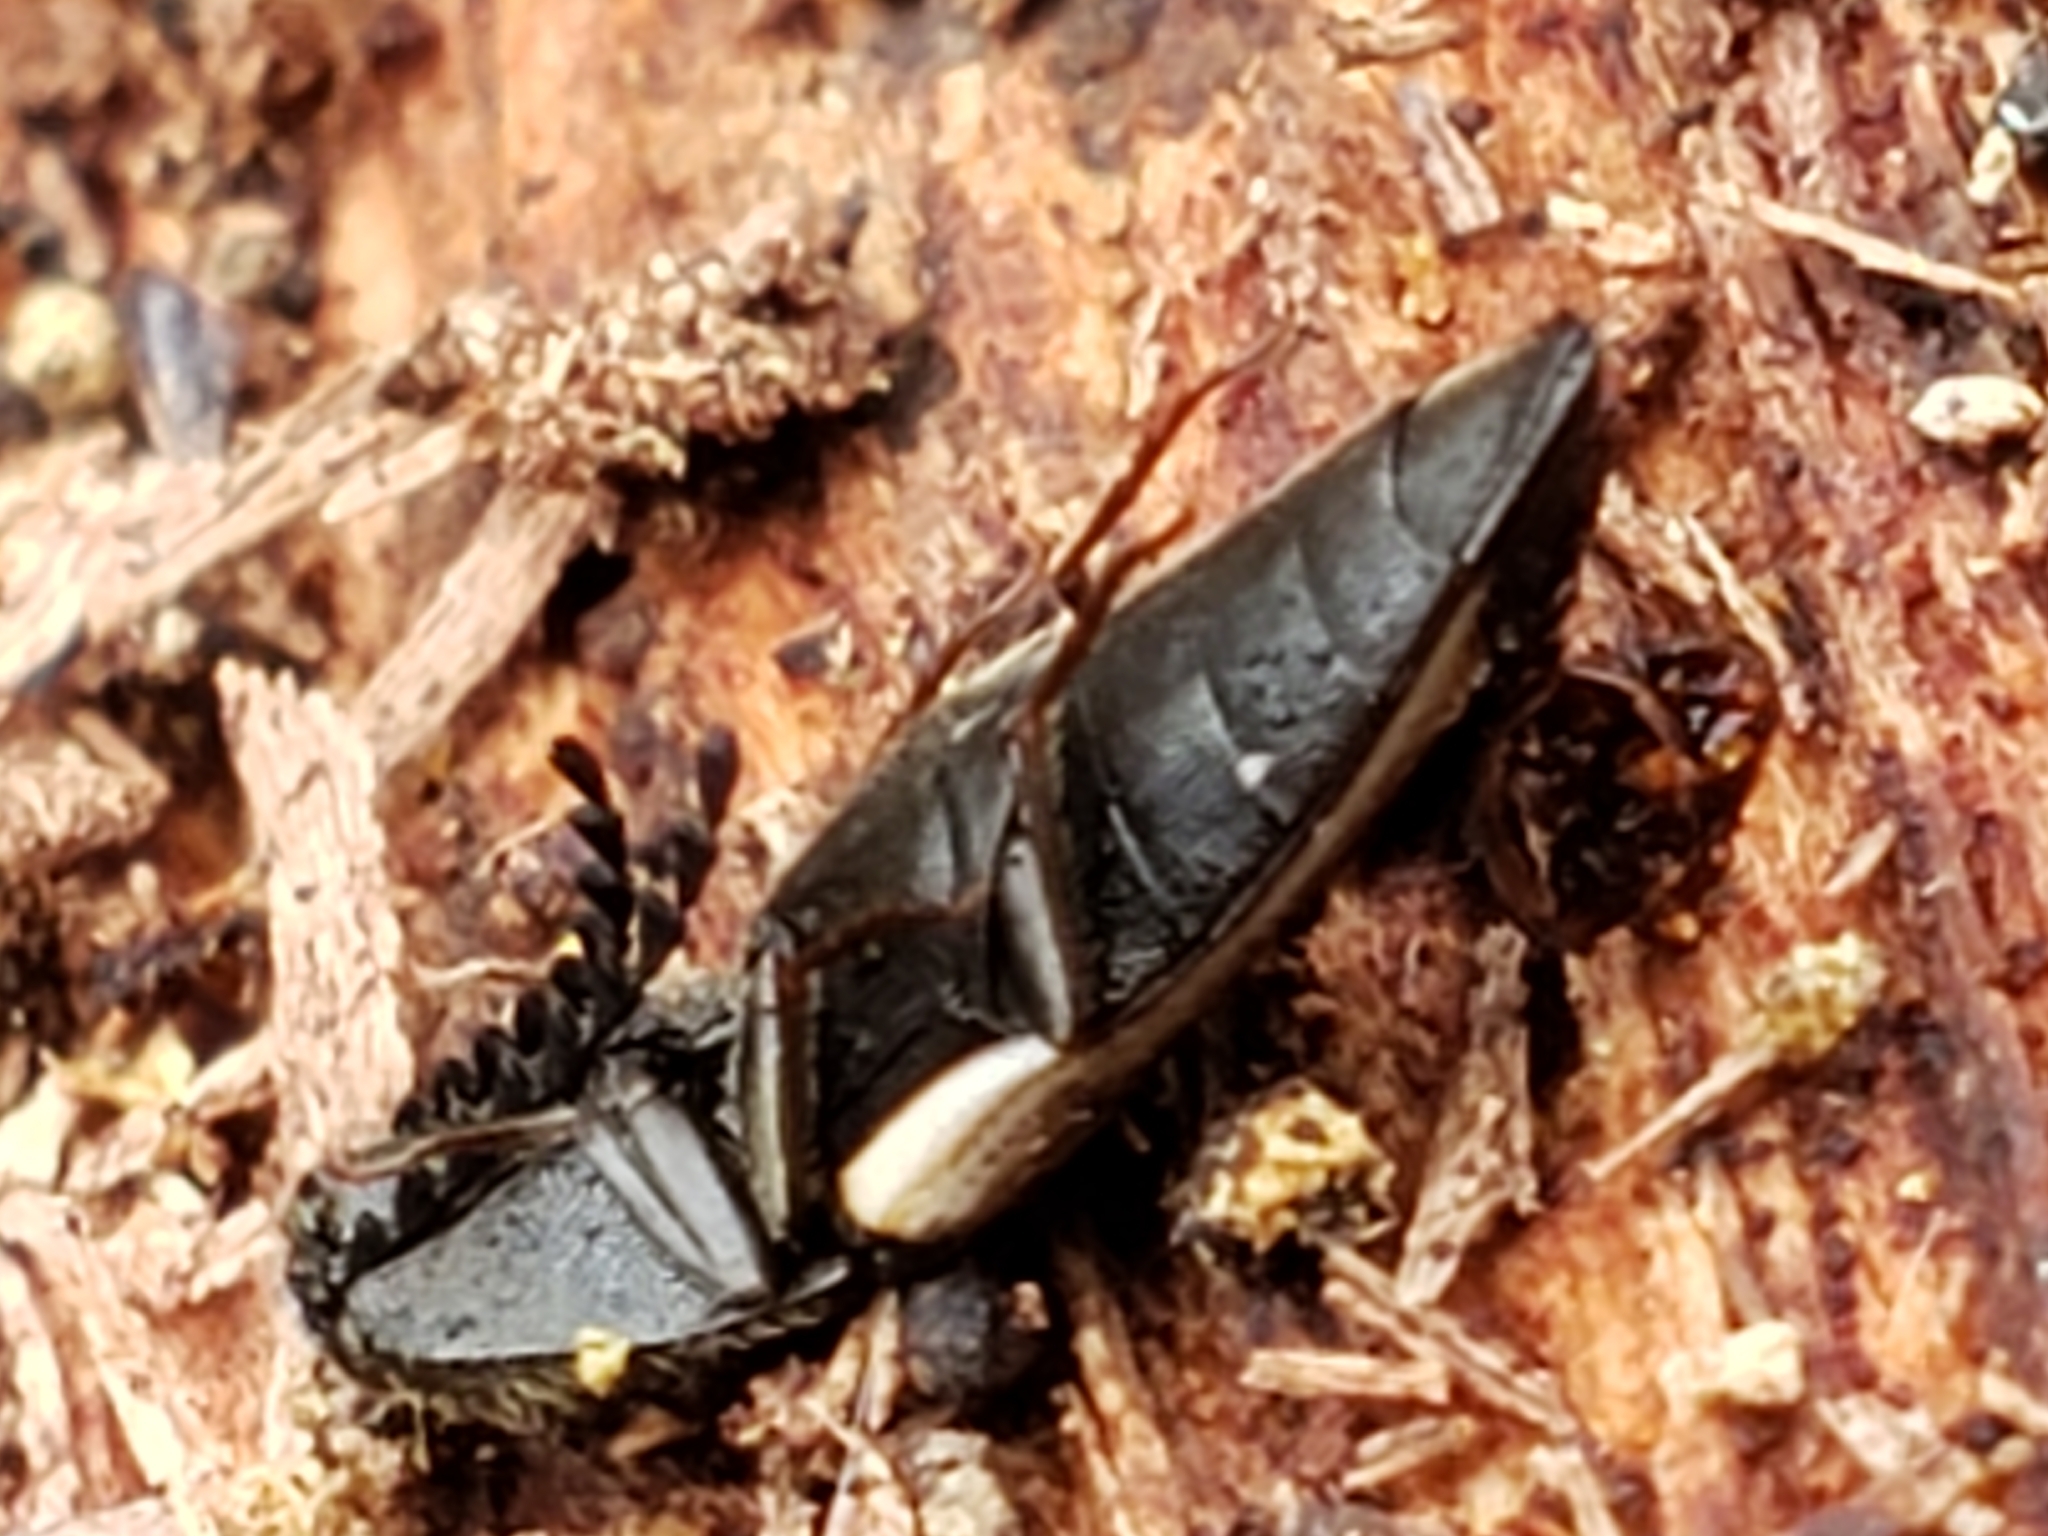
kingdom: Animalia
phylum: Arthropoda
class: Insecta
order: Coleoptera
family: Elateridae
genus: Ampedus
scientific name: Ampedus linteus
